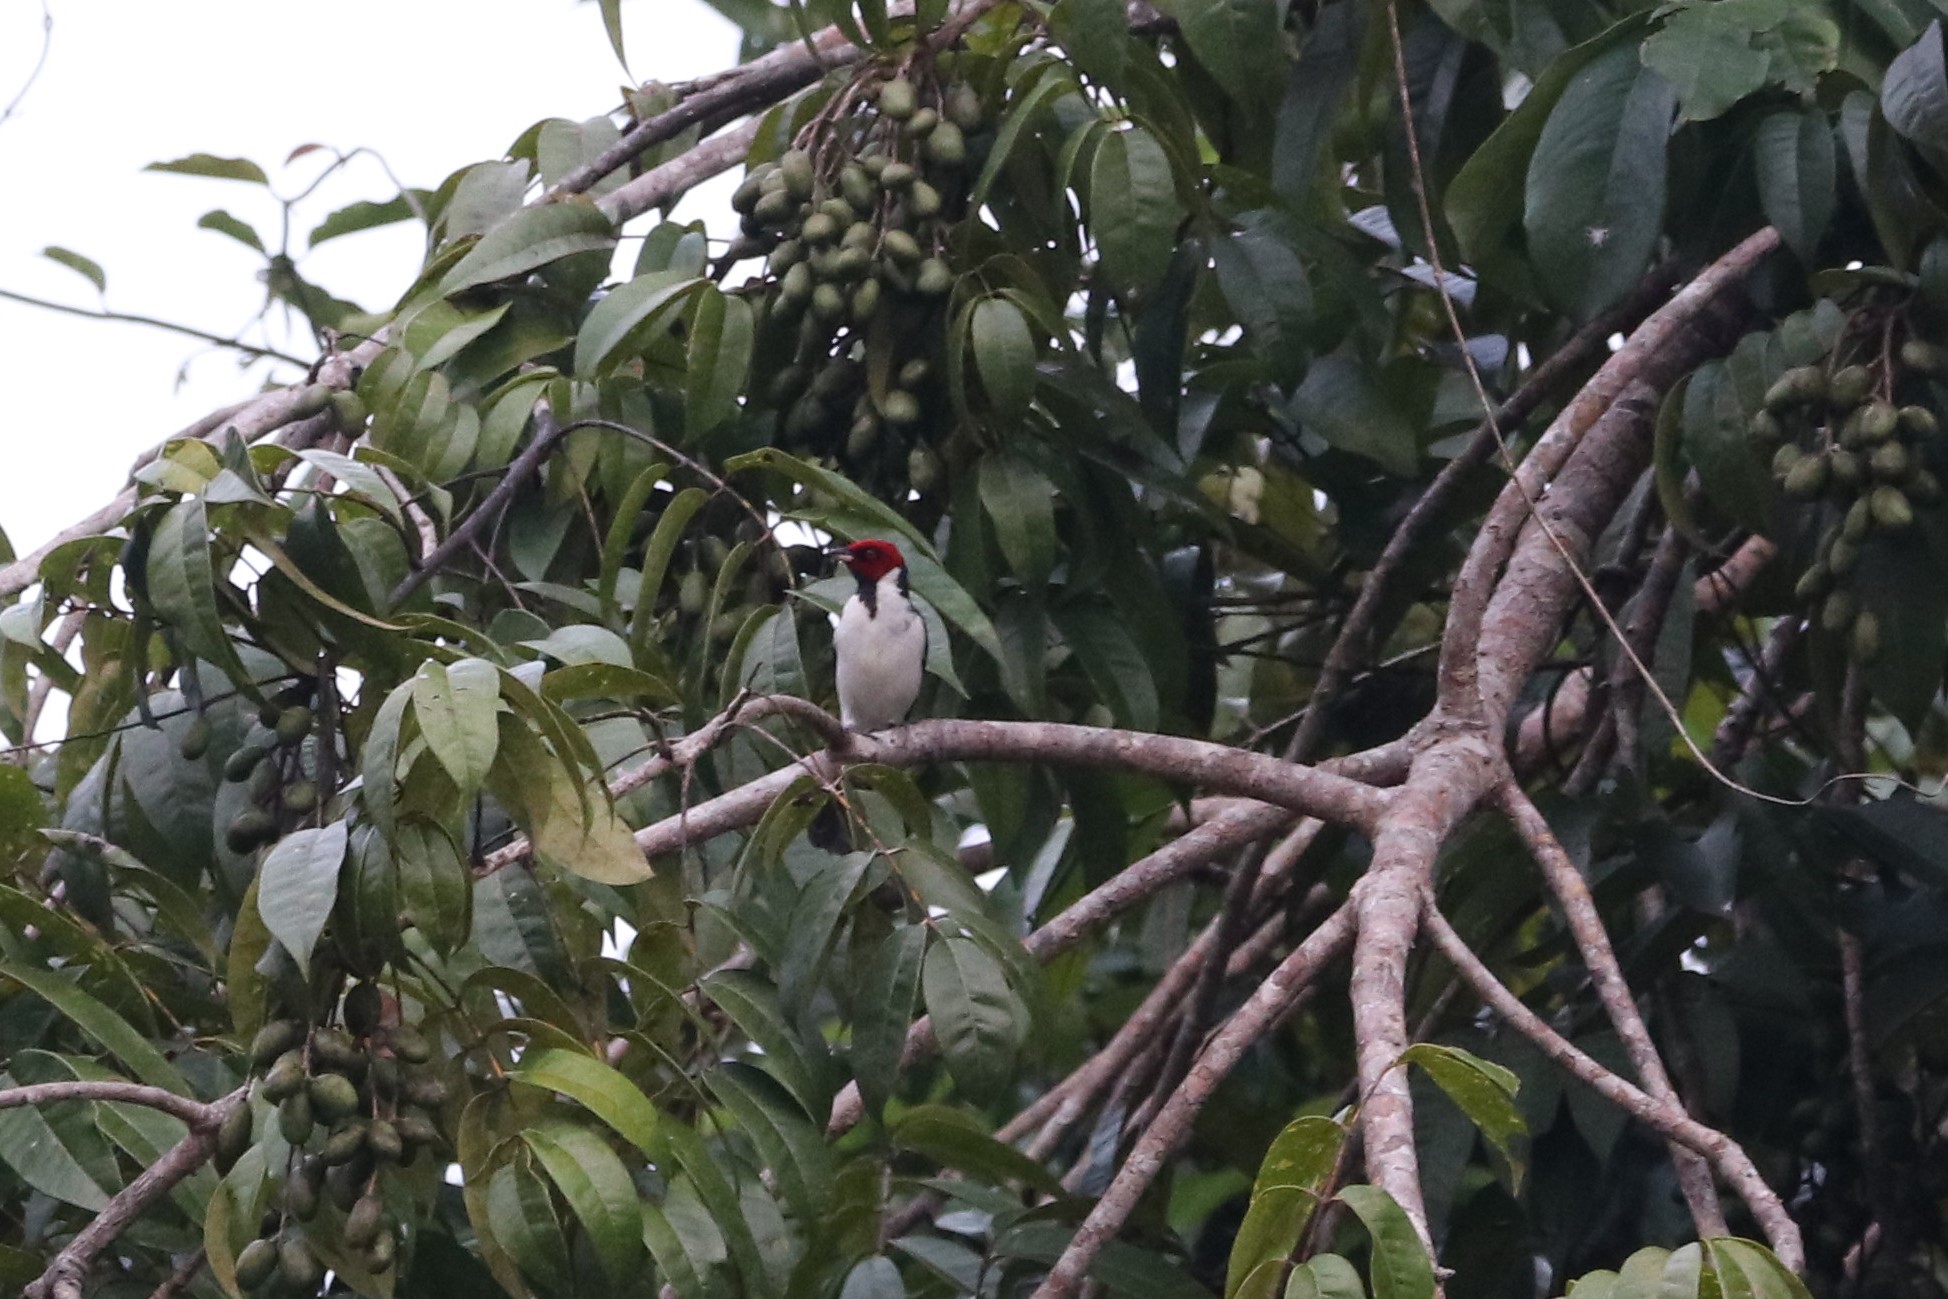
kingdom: Animalia
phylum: Chordata
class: Aves
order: Passeriformes
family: Thraupidae
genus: Paroaria
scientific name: Paroaria gularis
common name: Red-capped cardinal
